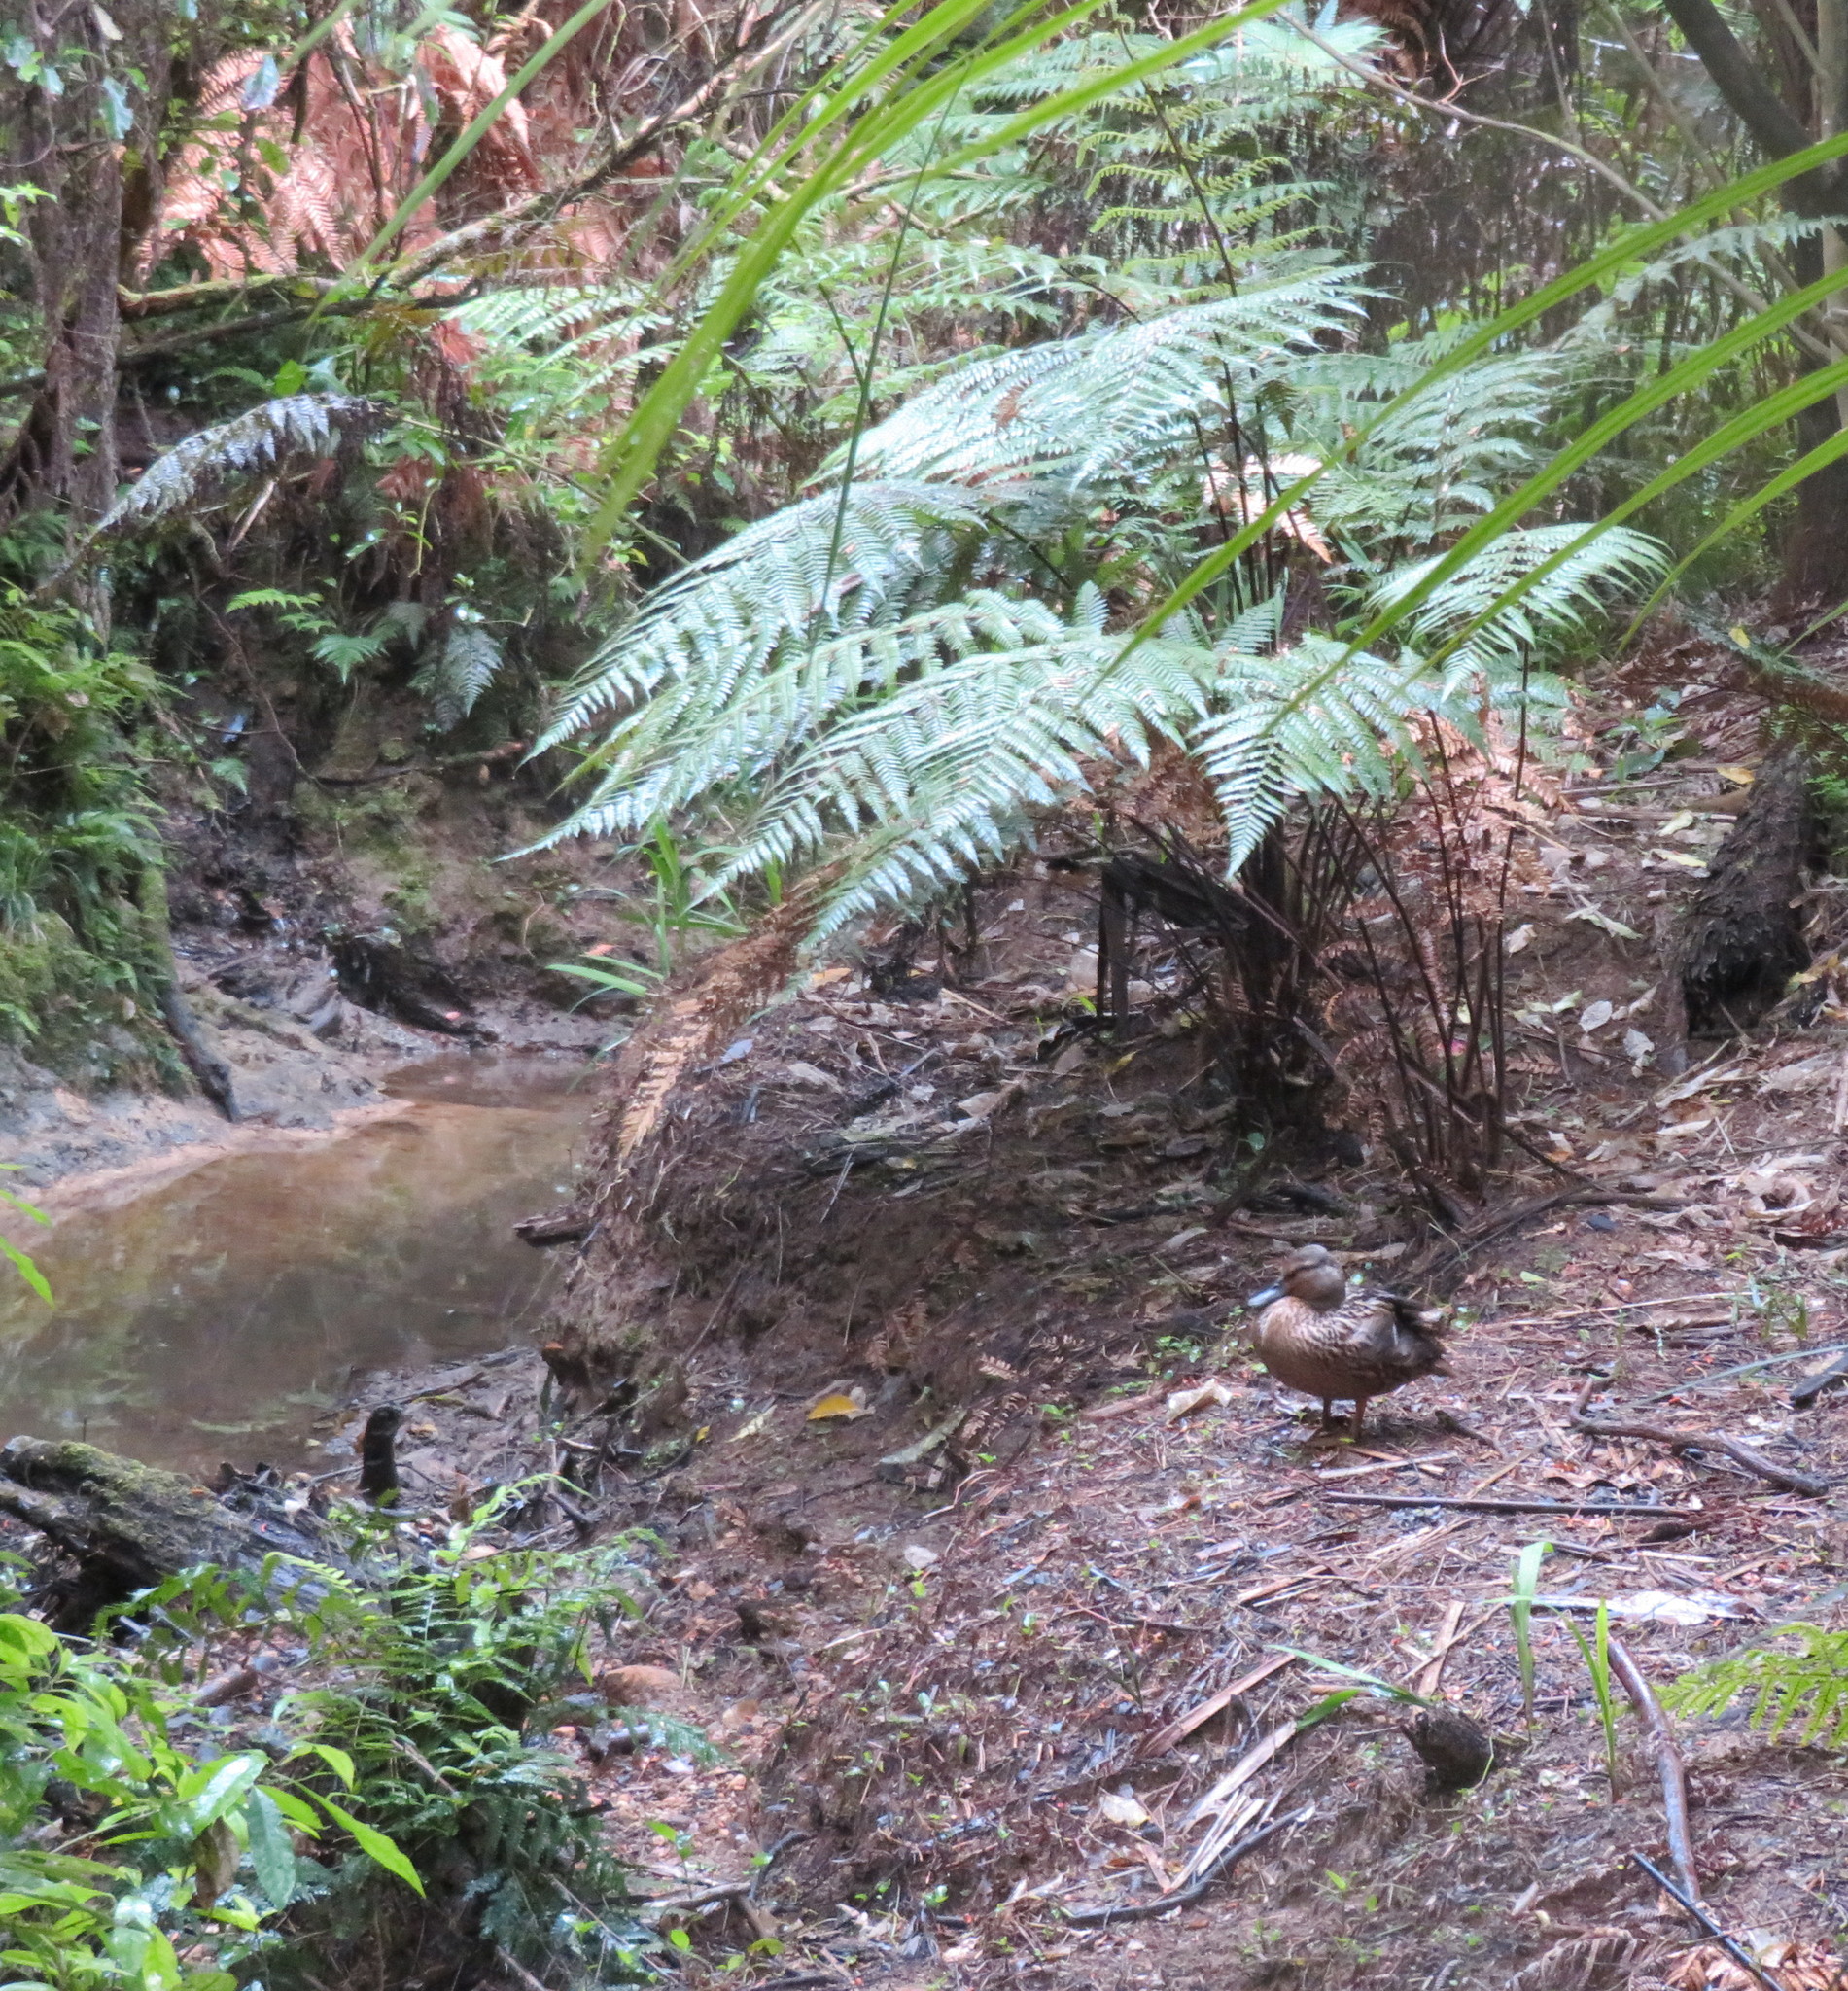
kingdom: Animalia
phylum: Chordata
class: Aves
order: Anseriformes
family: Anatidae
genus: Anas
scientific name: Anas
